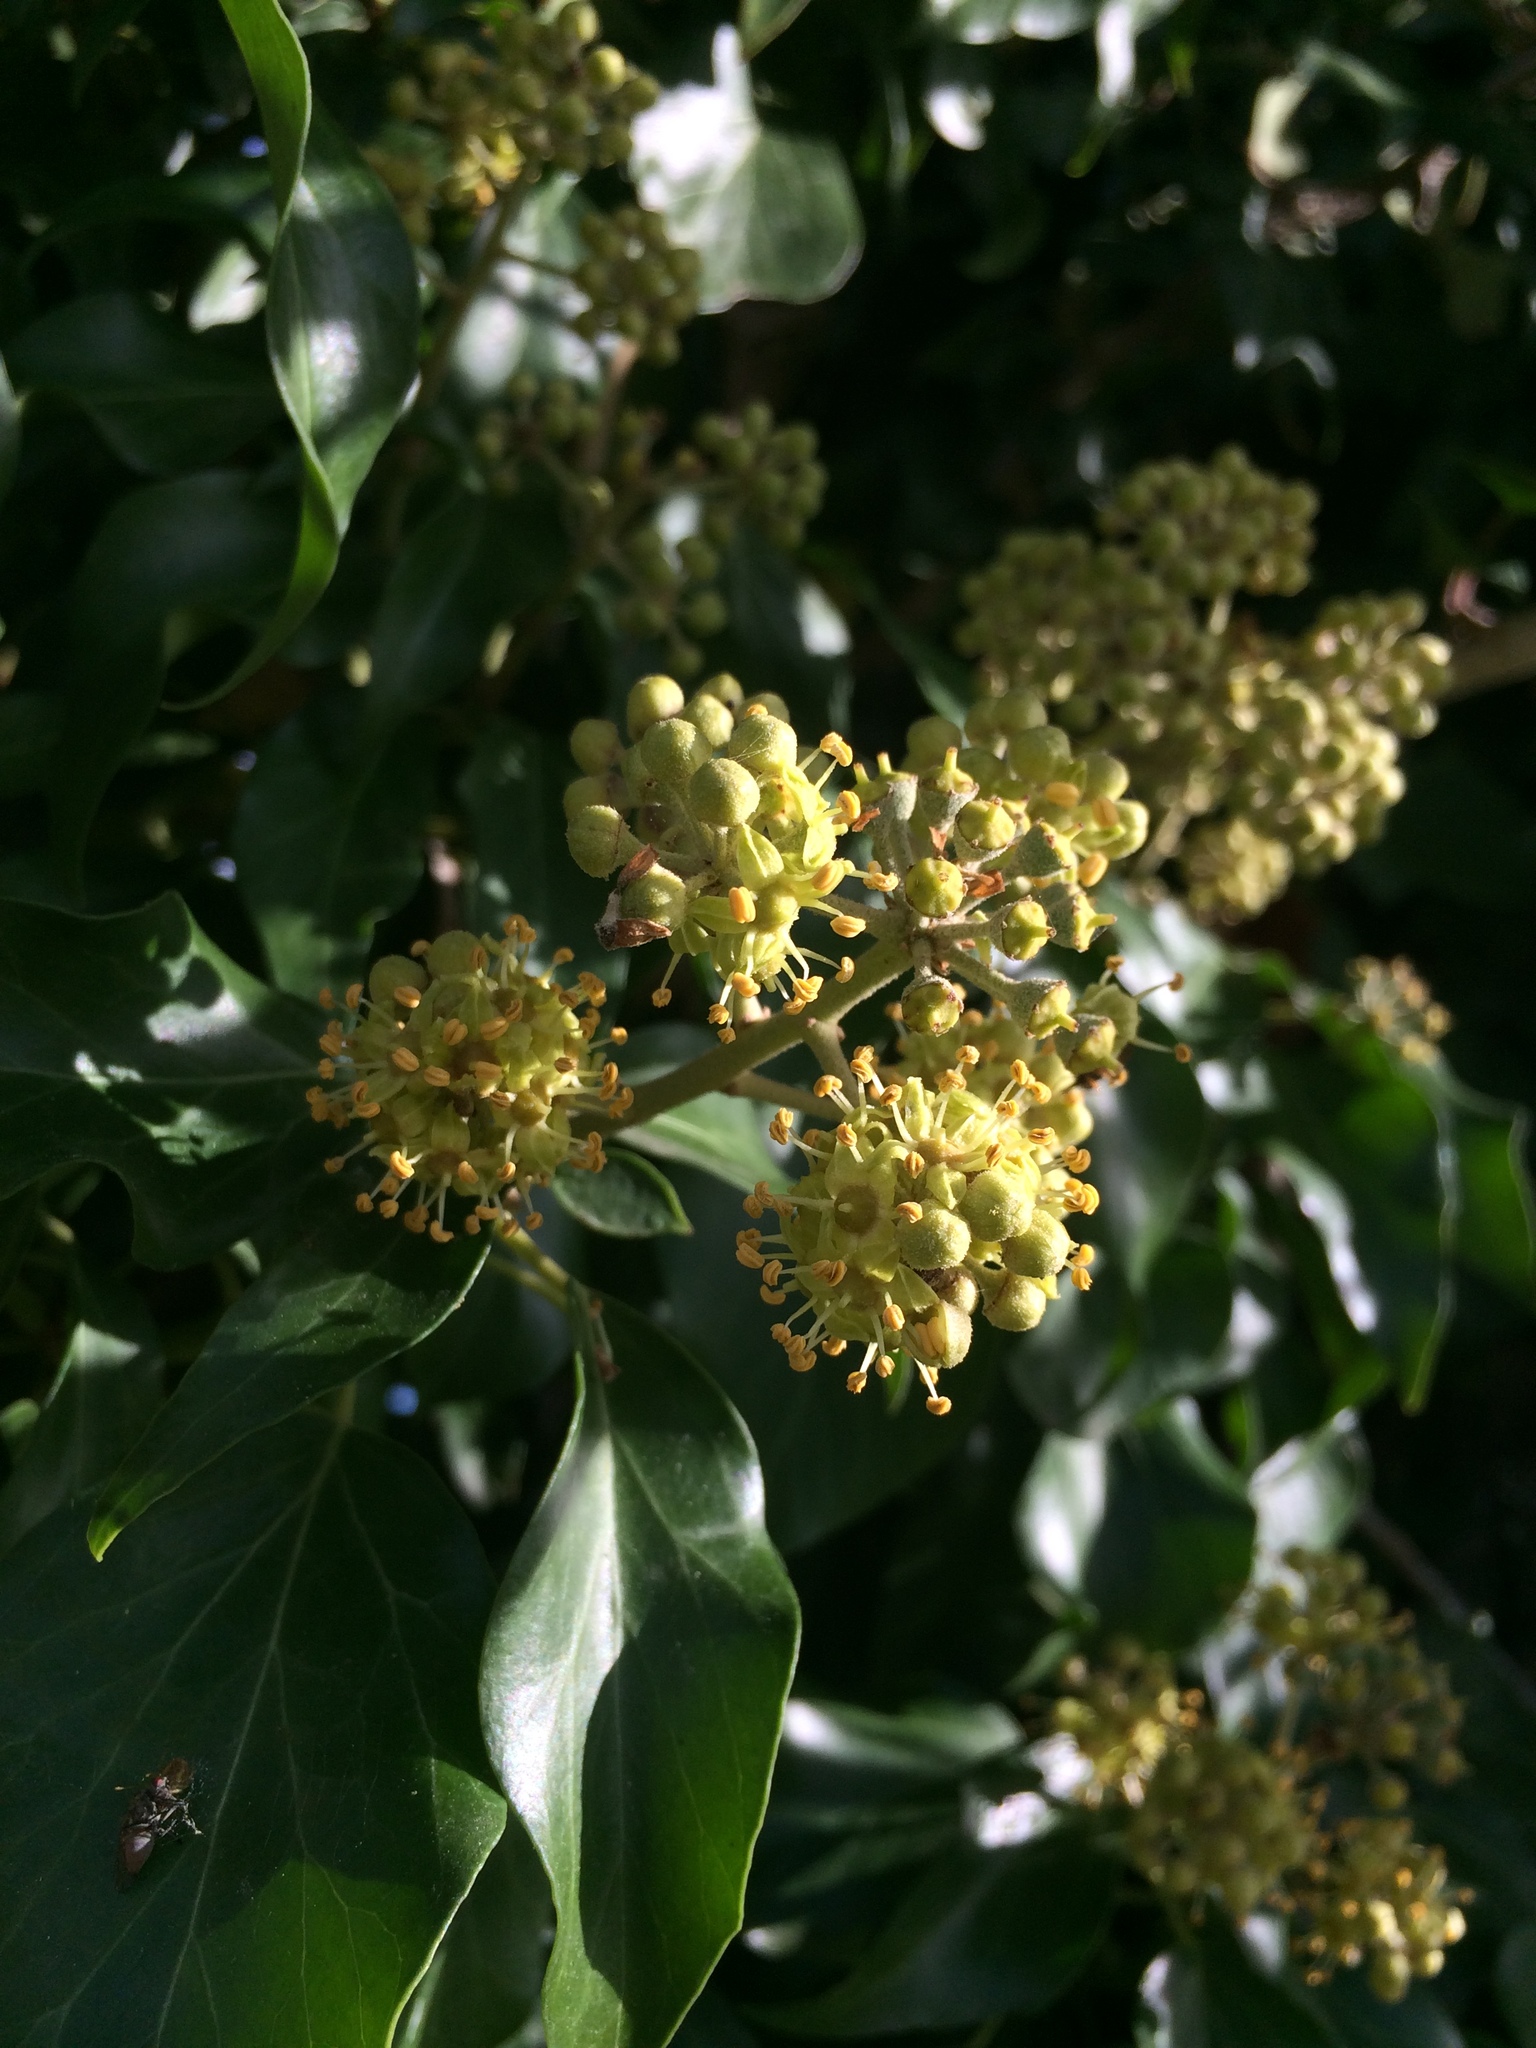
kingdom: Plantae
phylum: Tracheophyta
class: Magnoliopsida
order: Apiales
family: Araliaceae
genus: Hedera
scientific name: Hedera helix
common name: Ivy
